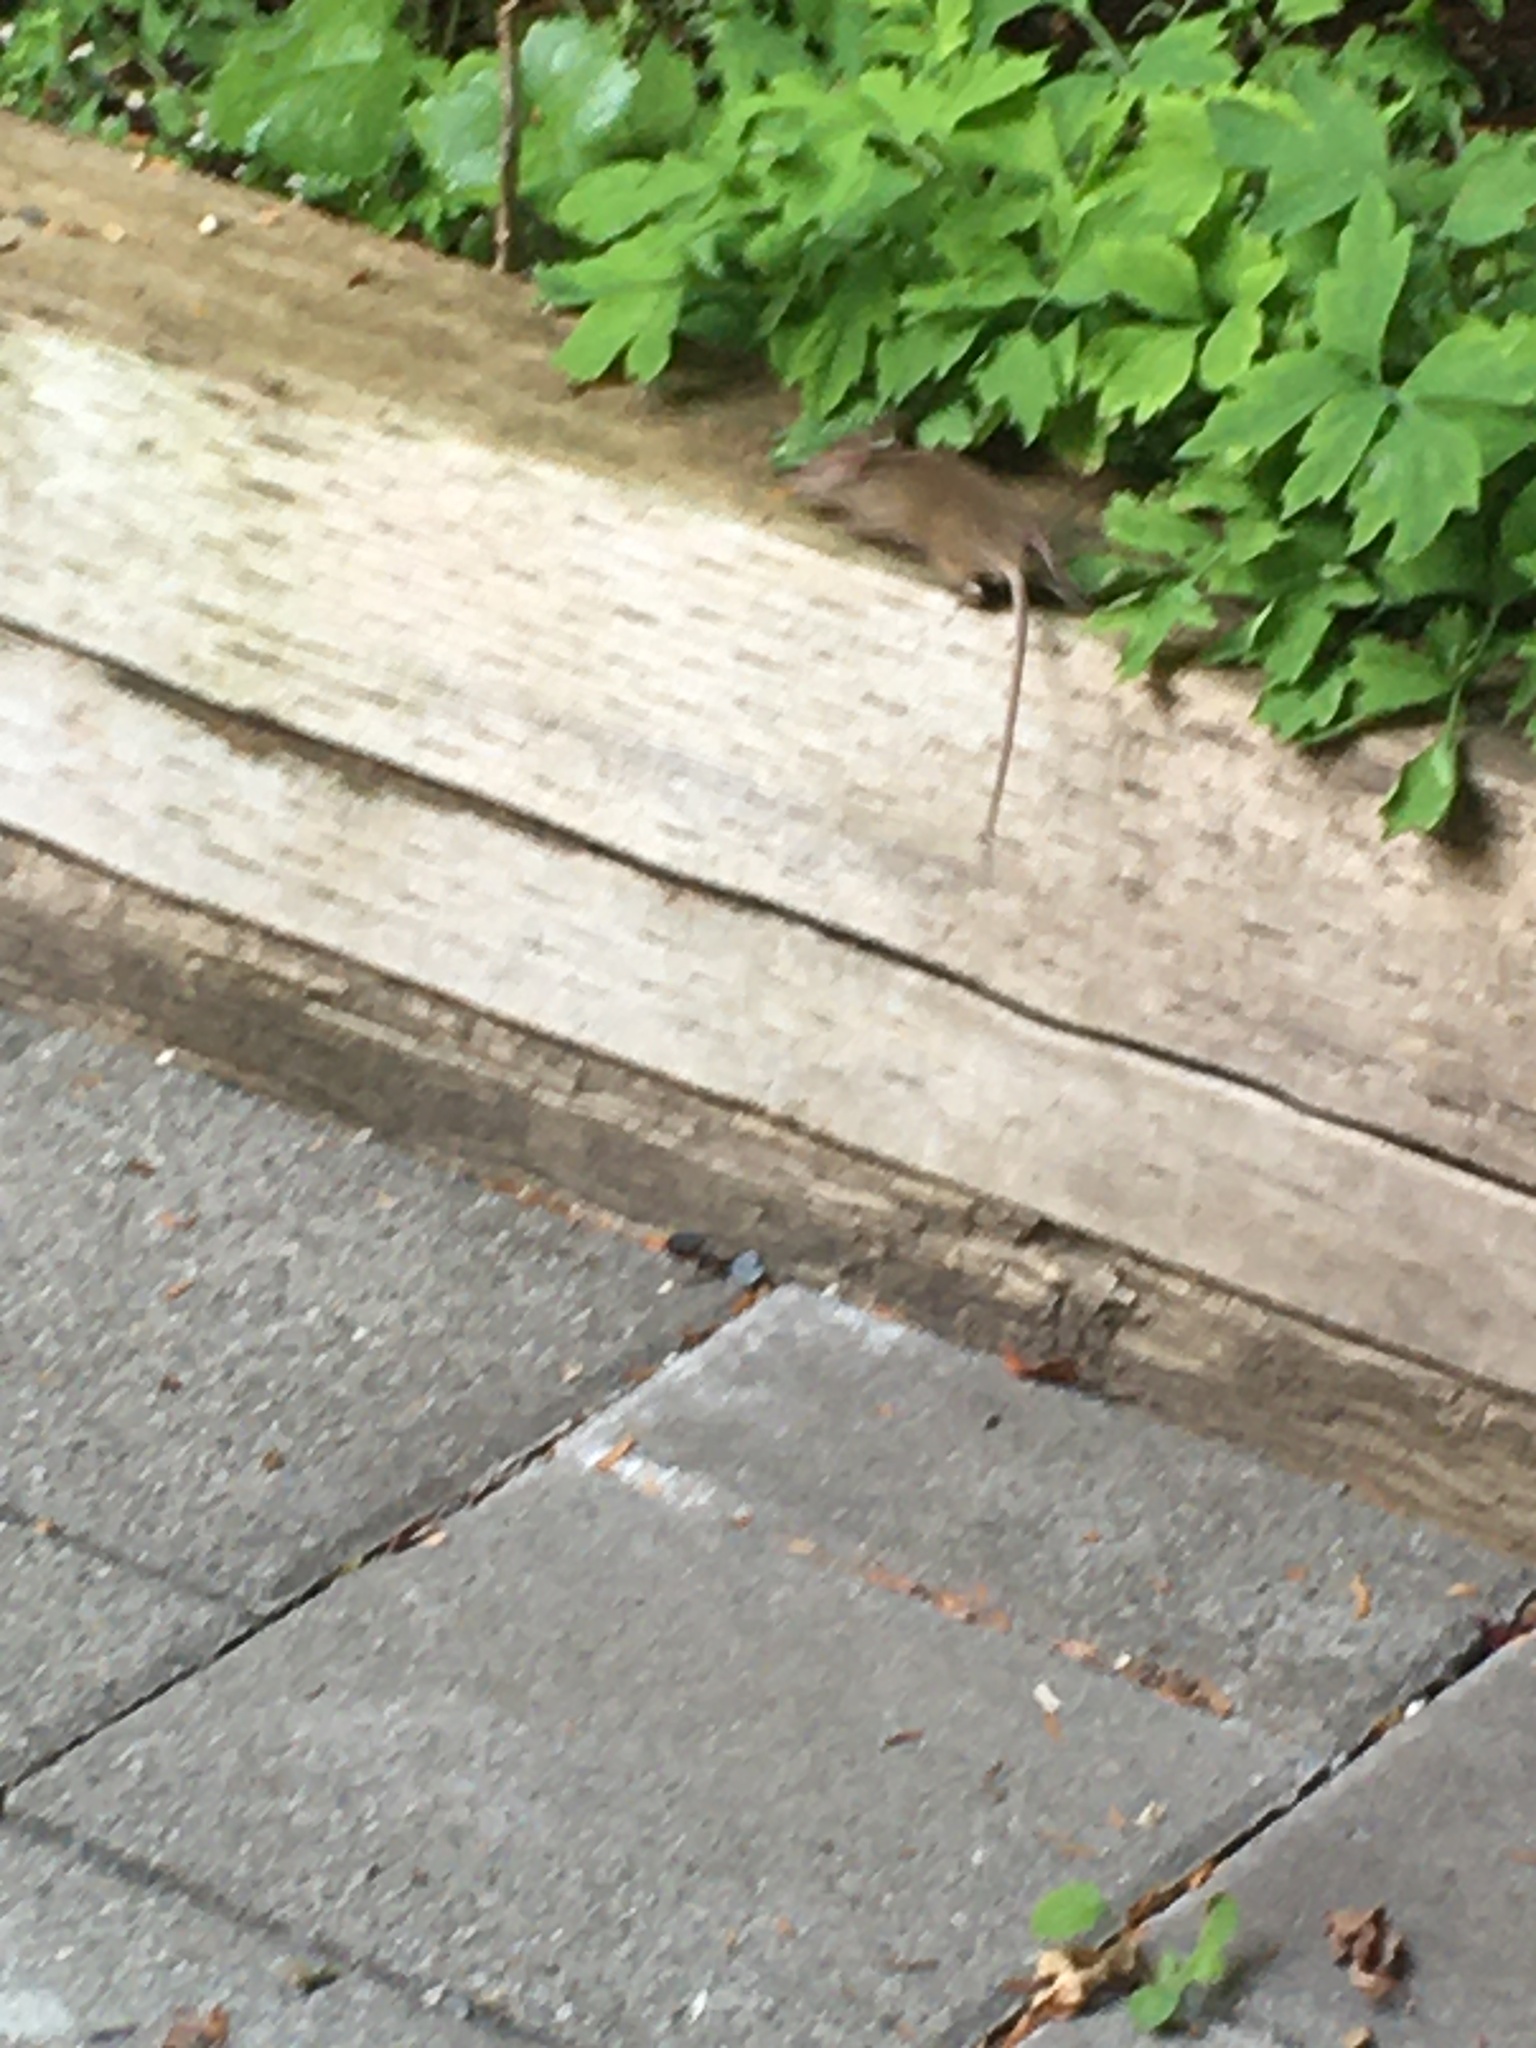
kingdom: Animalia
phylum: Chordata
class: Mammalia
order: Rodentia
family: Muridae
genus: Mus
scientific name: Mus musculus
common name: House mouse
